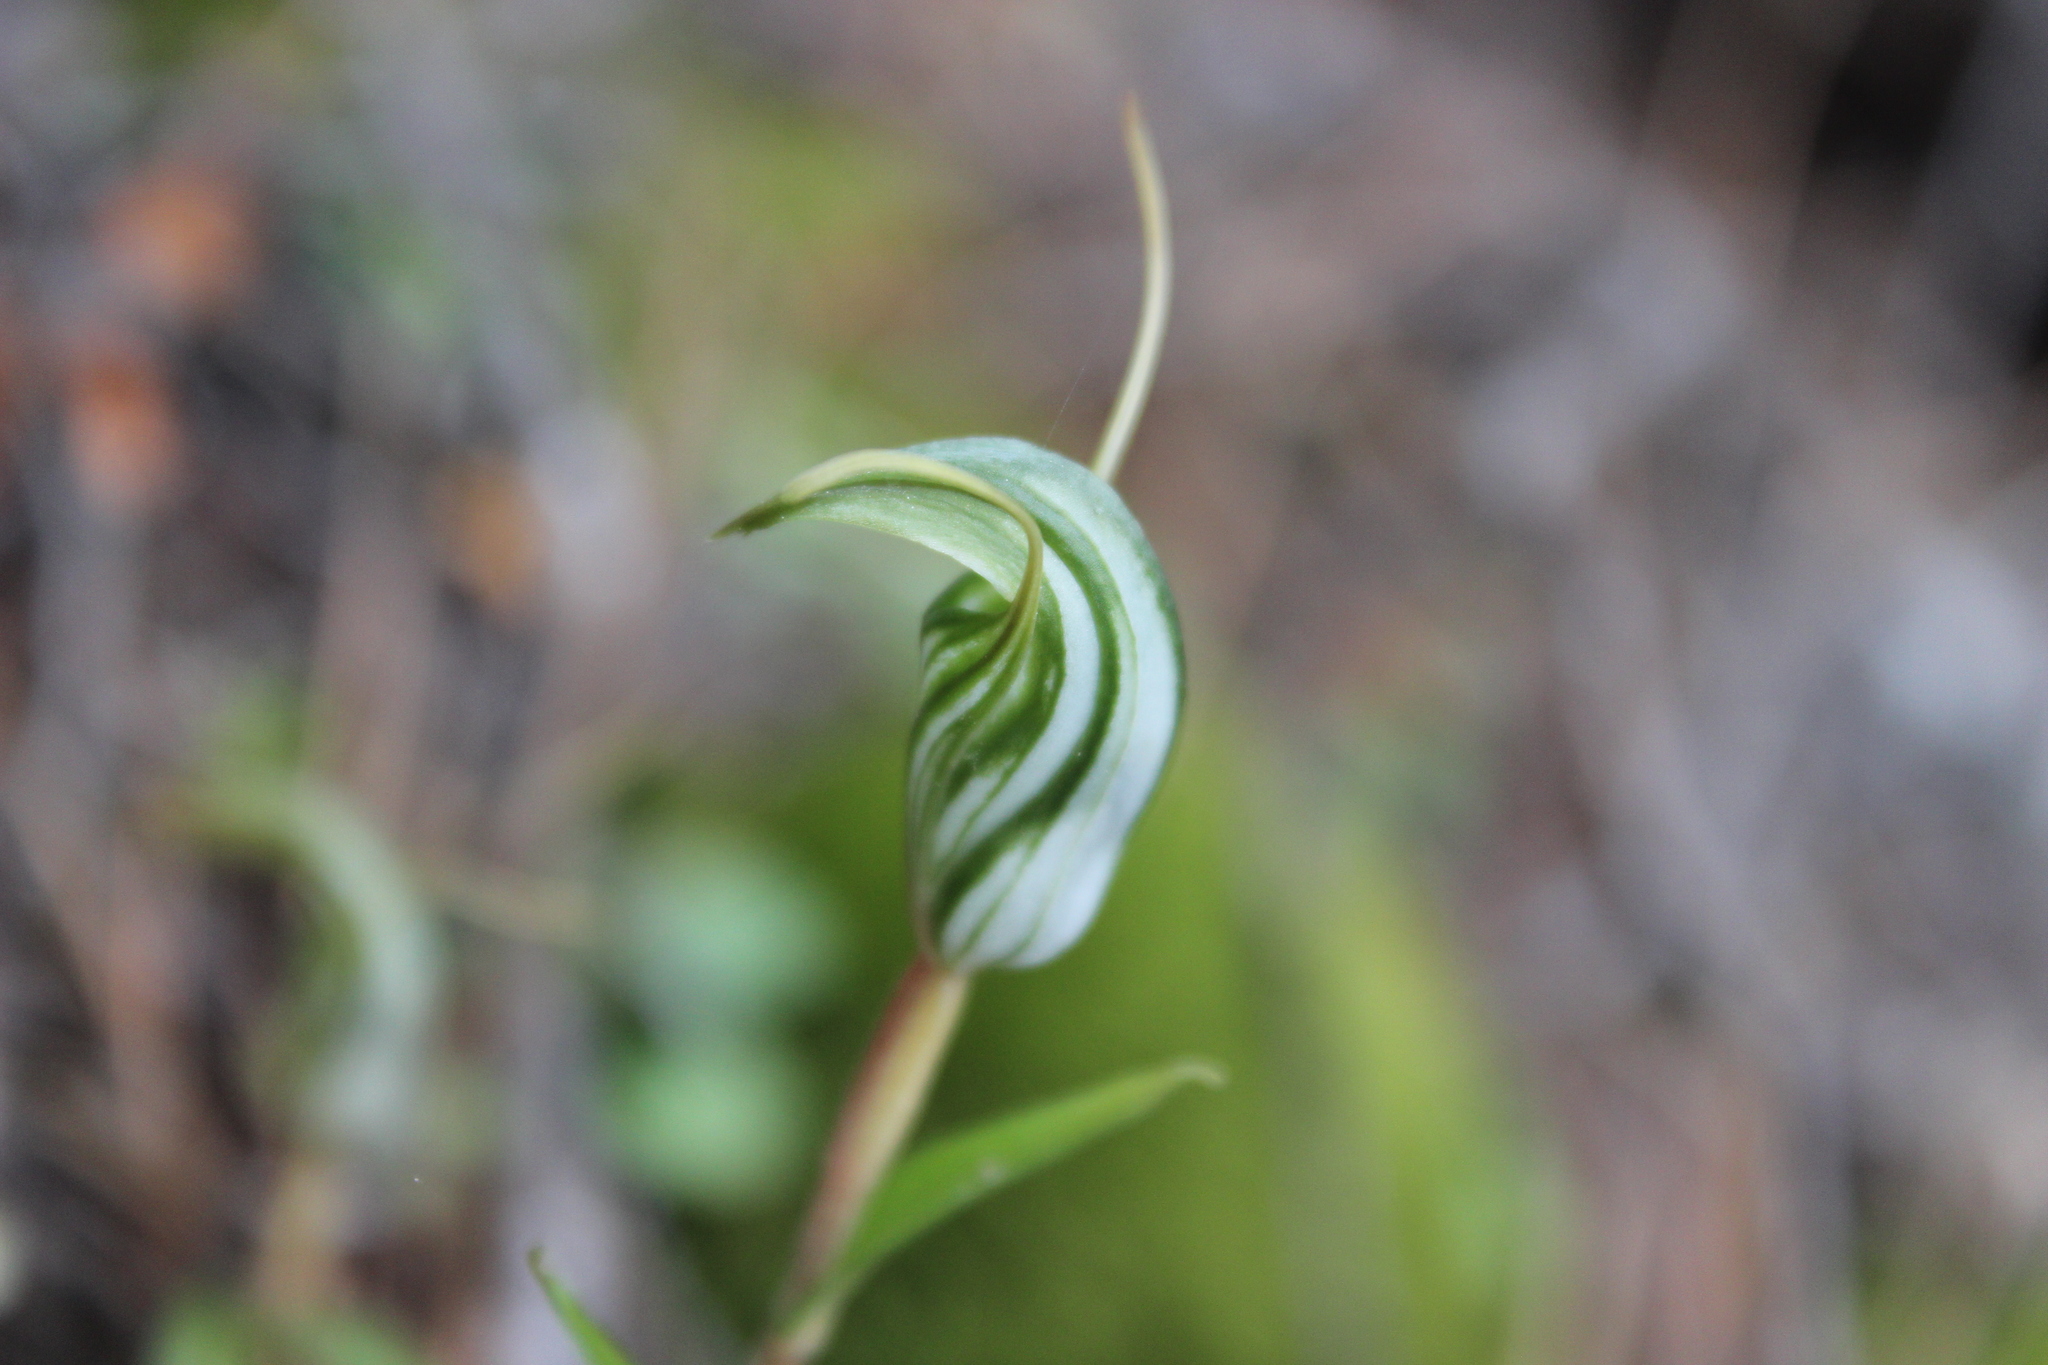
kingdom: Plantae
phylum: Tracheophyta
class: Liliopsida
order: Asparagales
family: Orchidaceae
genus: Pterostylis
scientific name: Pterostylis alobula
